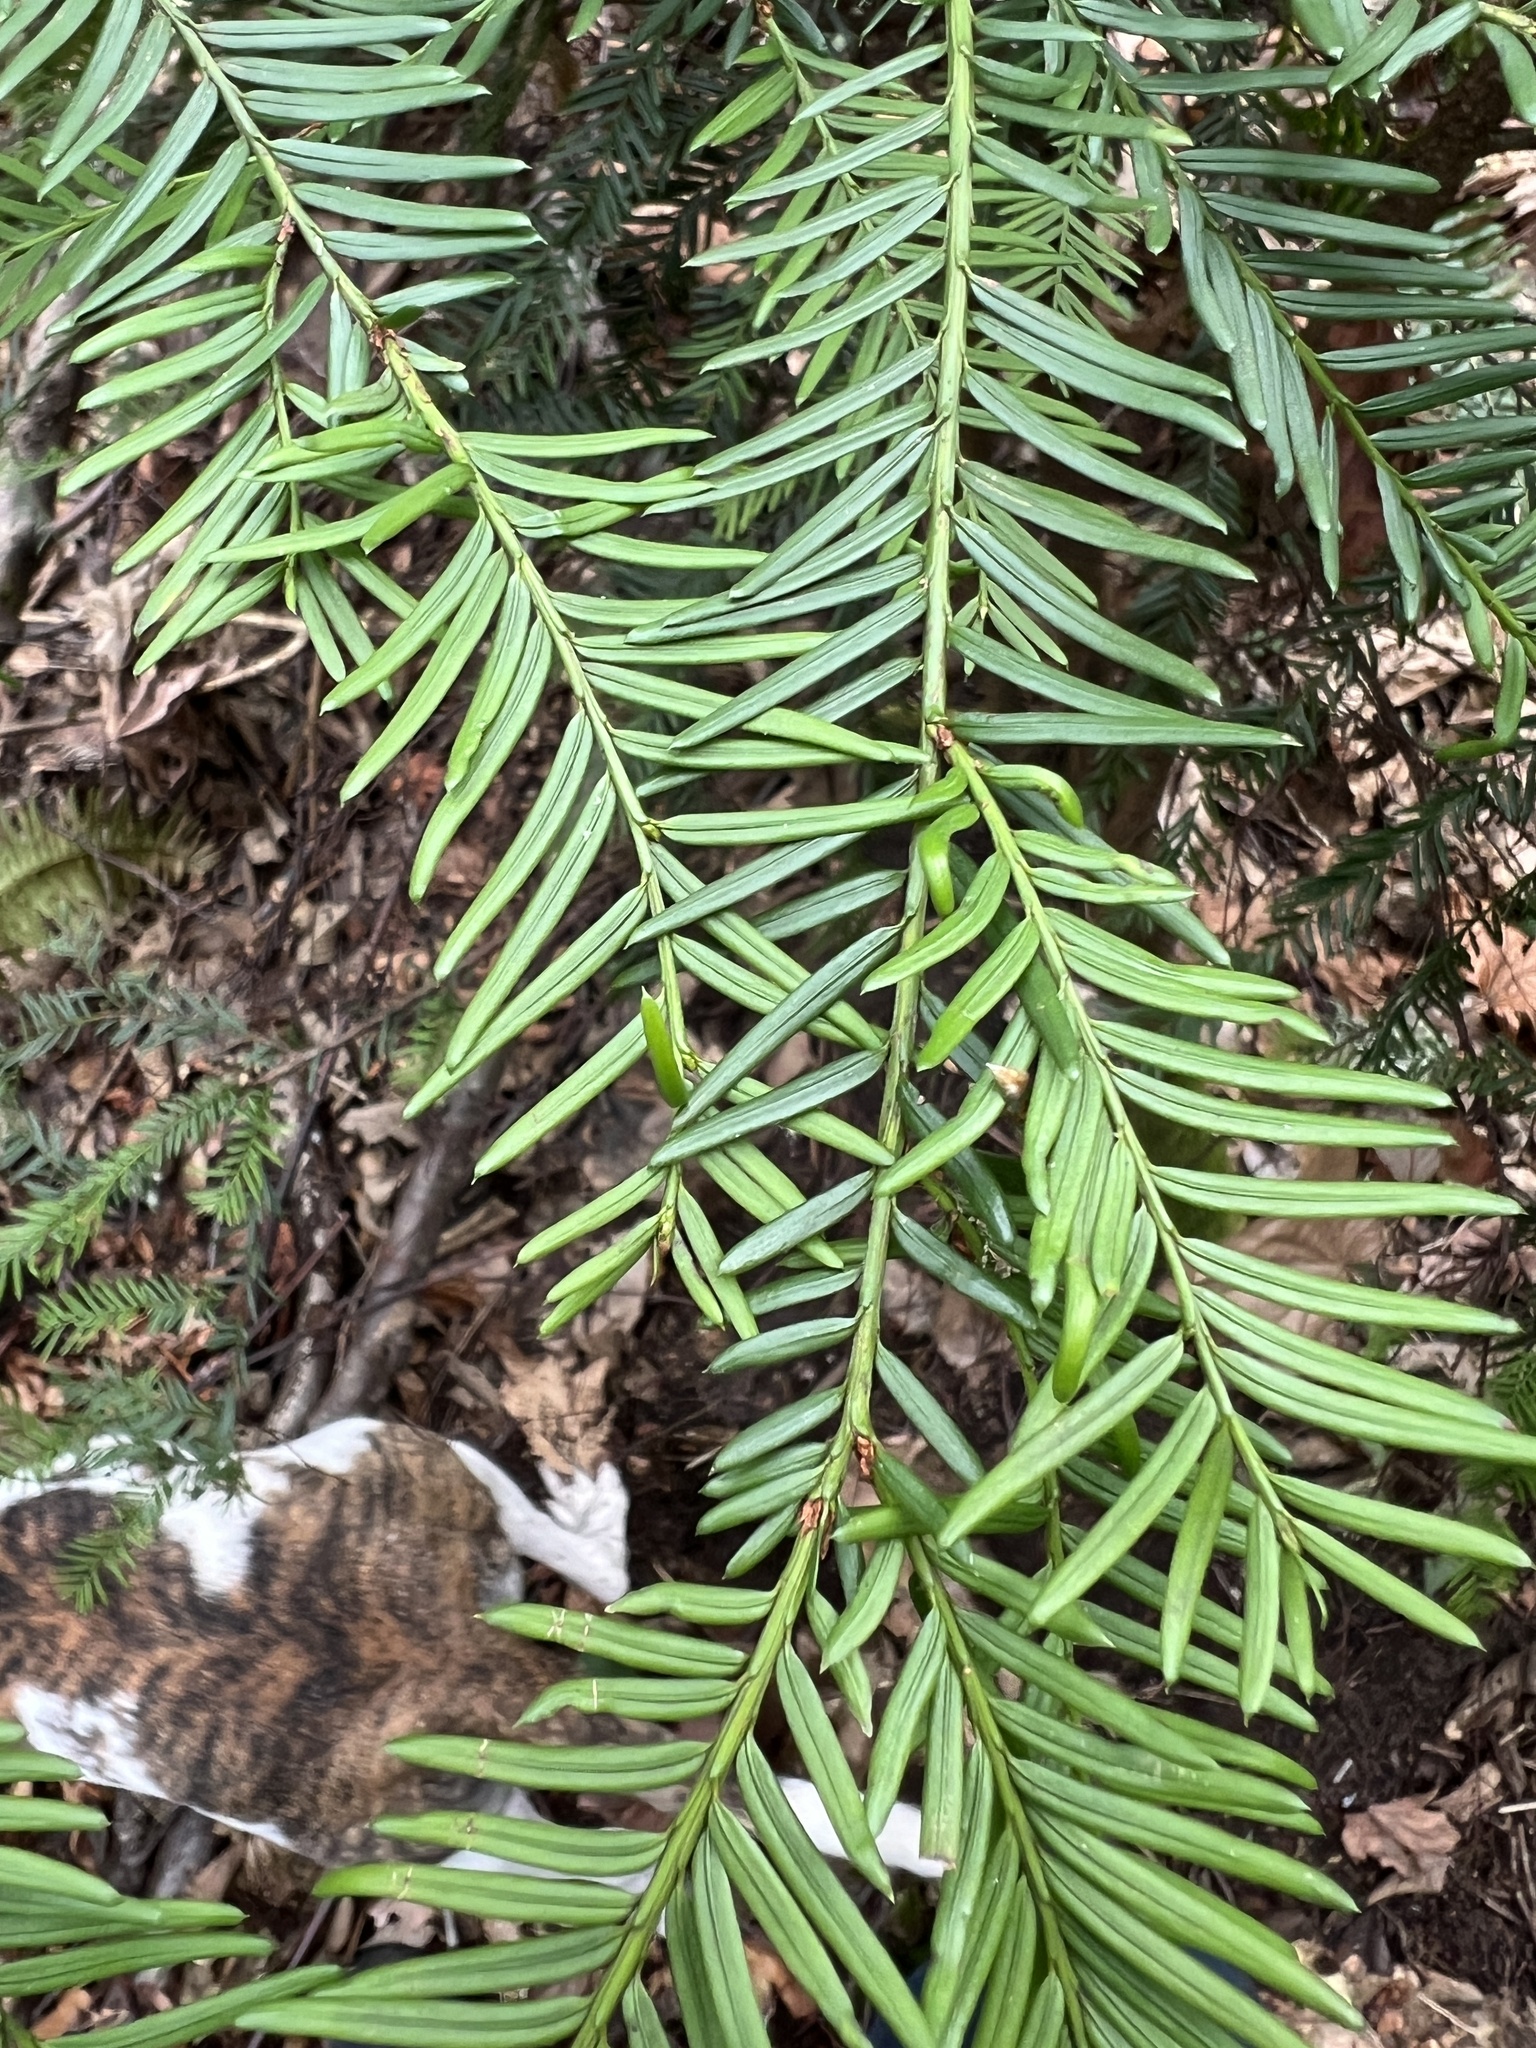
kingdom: Plantae
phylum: Tracheophyta
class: Pinopsida
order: Pinales
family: Taxaceae
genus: Taxus
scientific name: Taxus brevifolia
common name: Pacific yew
